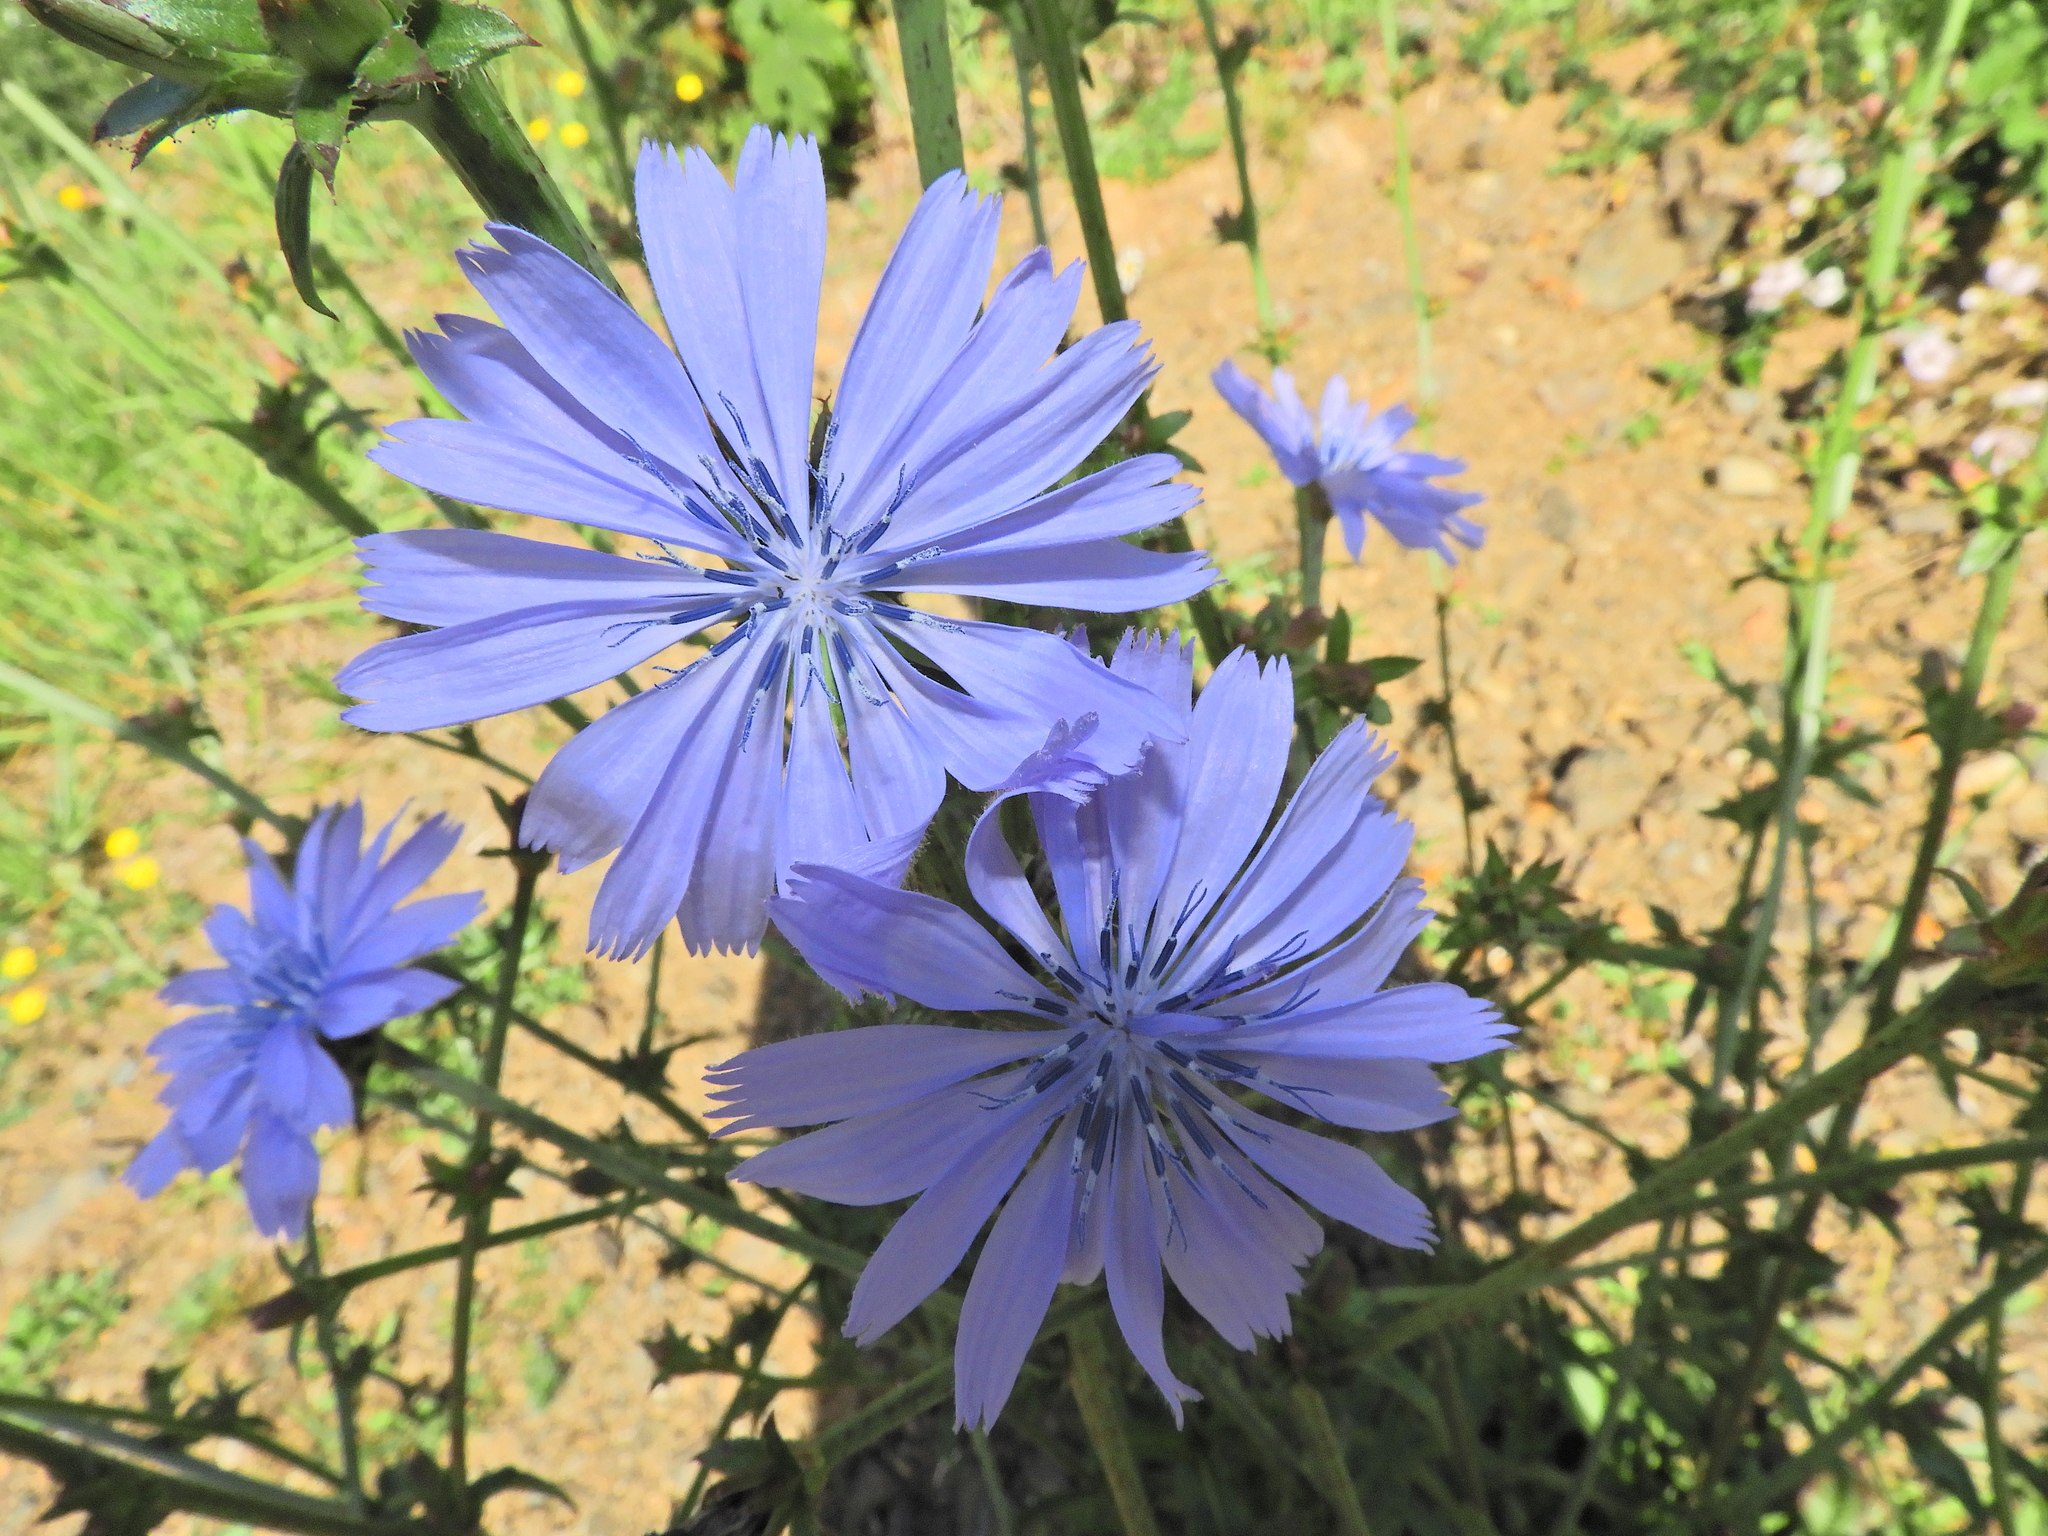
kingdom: Plantae
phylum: Tracheophyta
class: Magnoliopsida
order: Asterales
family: Asteraceae
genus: Cichorium
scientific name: Cichorium intybus
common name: Chicory
